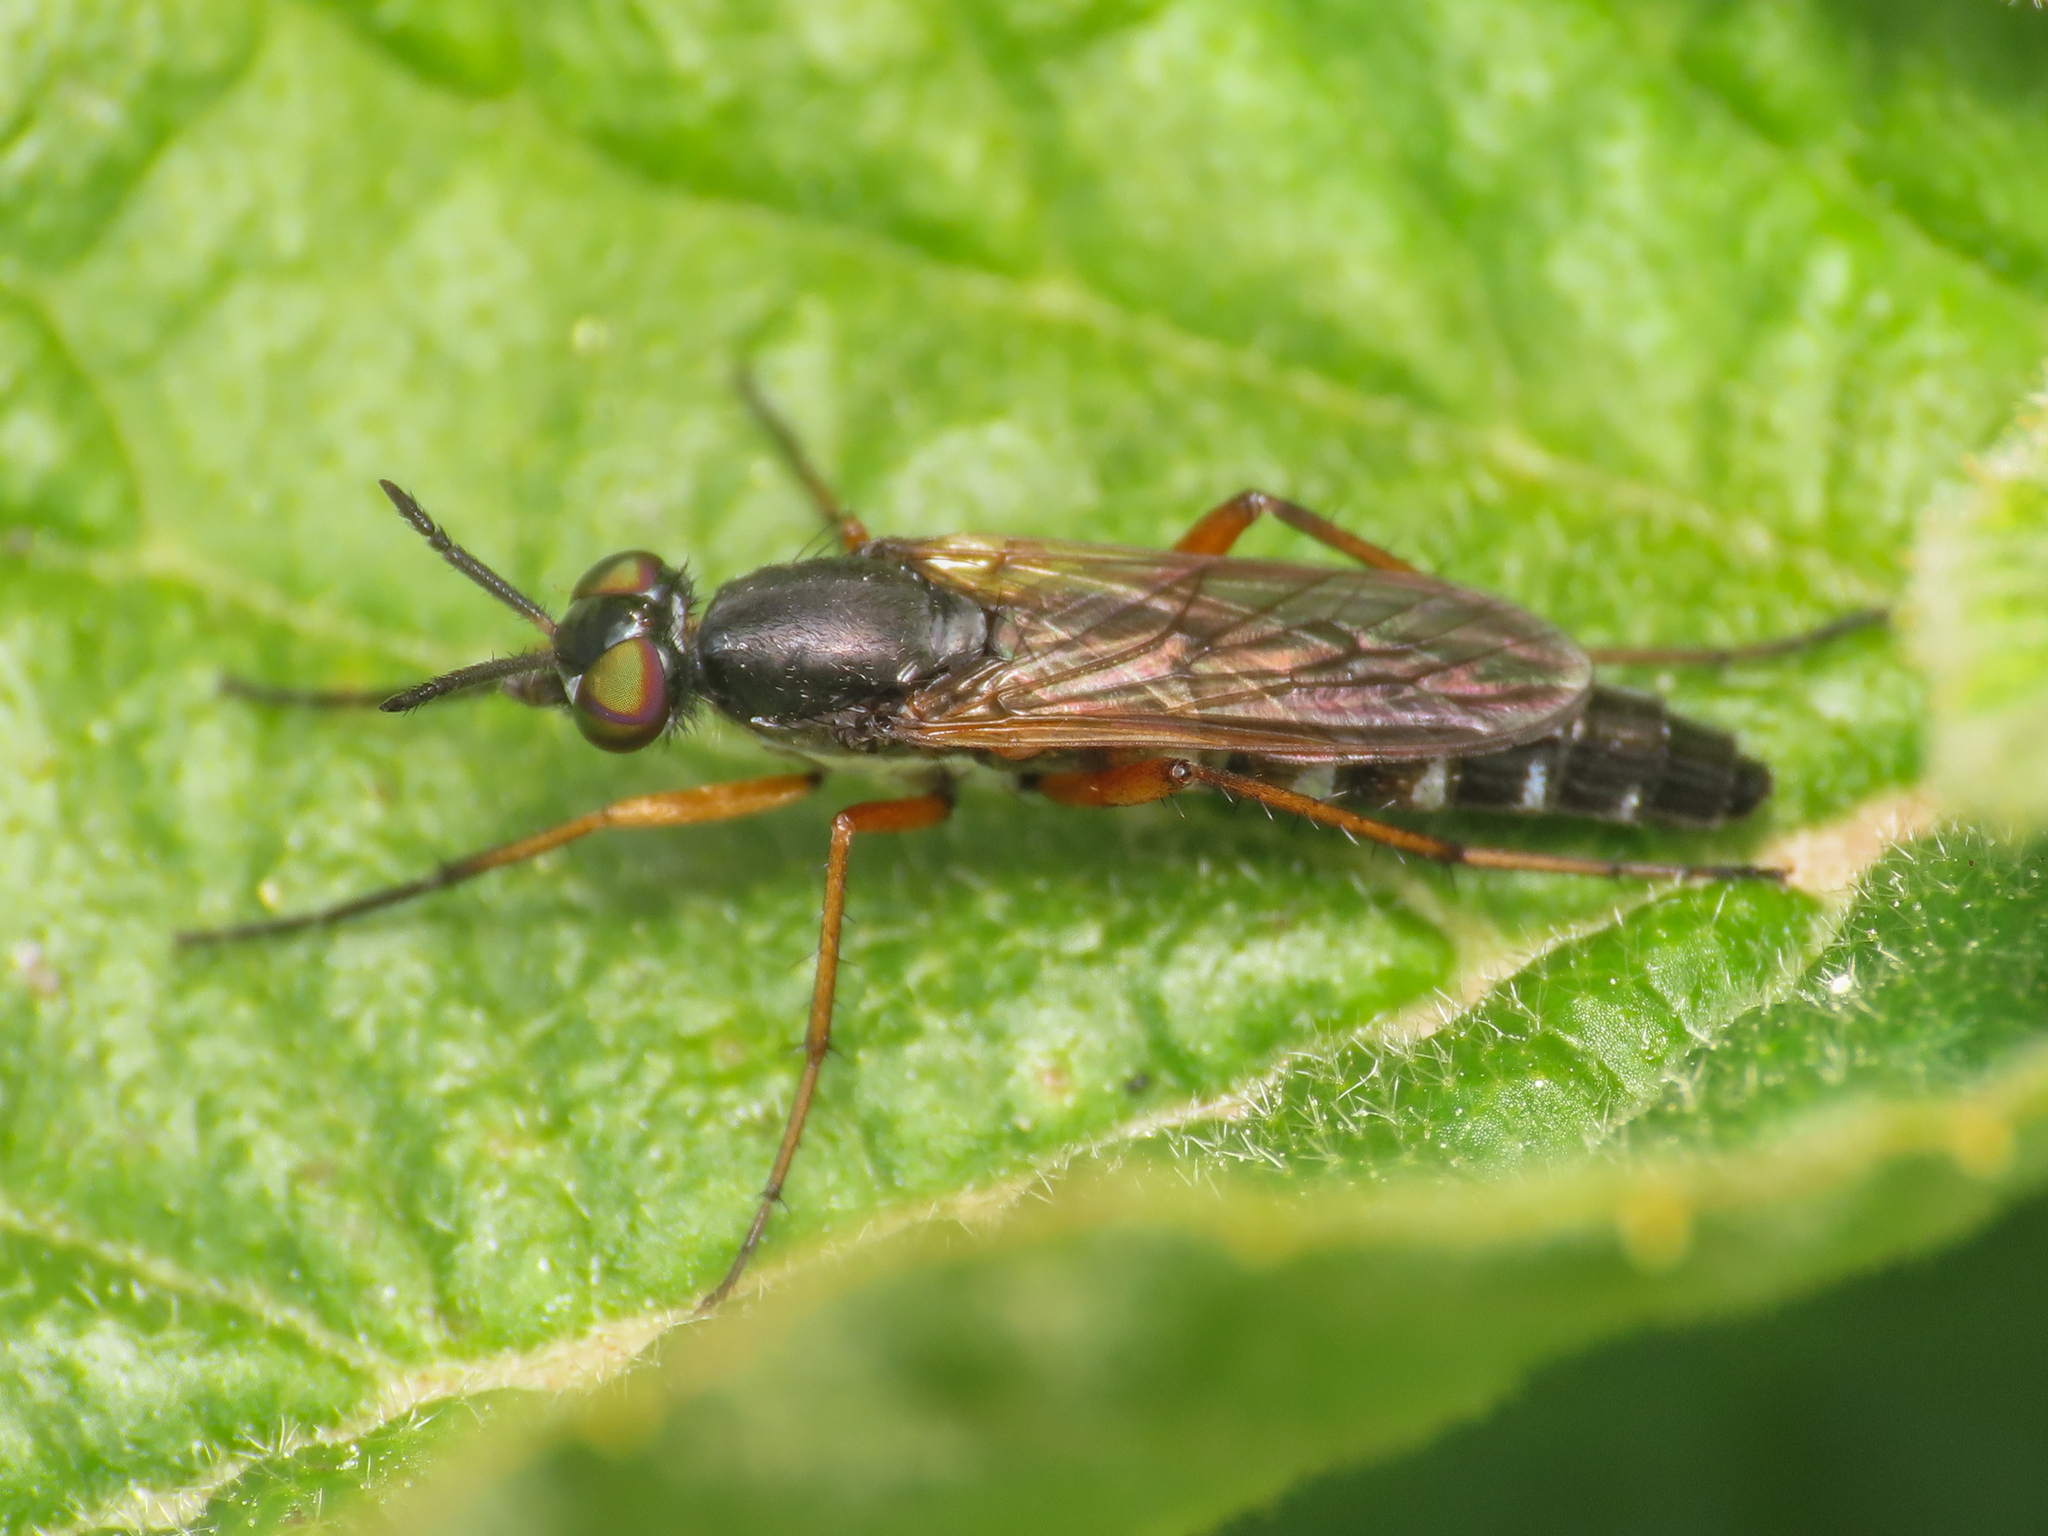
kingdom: Animalia
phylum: Arthropoda
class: Insecta
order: Diptera
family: Therevidae
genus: Euphycus
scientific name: Euphycus dispar
